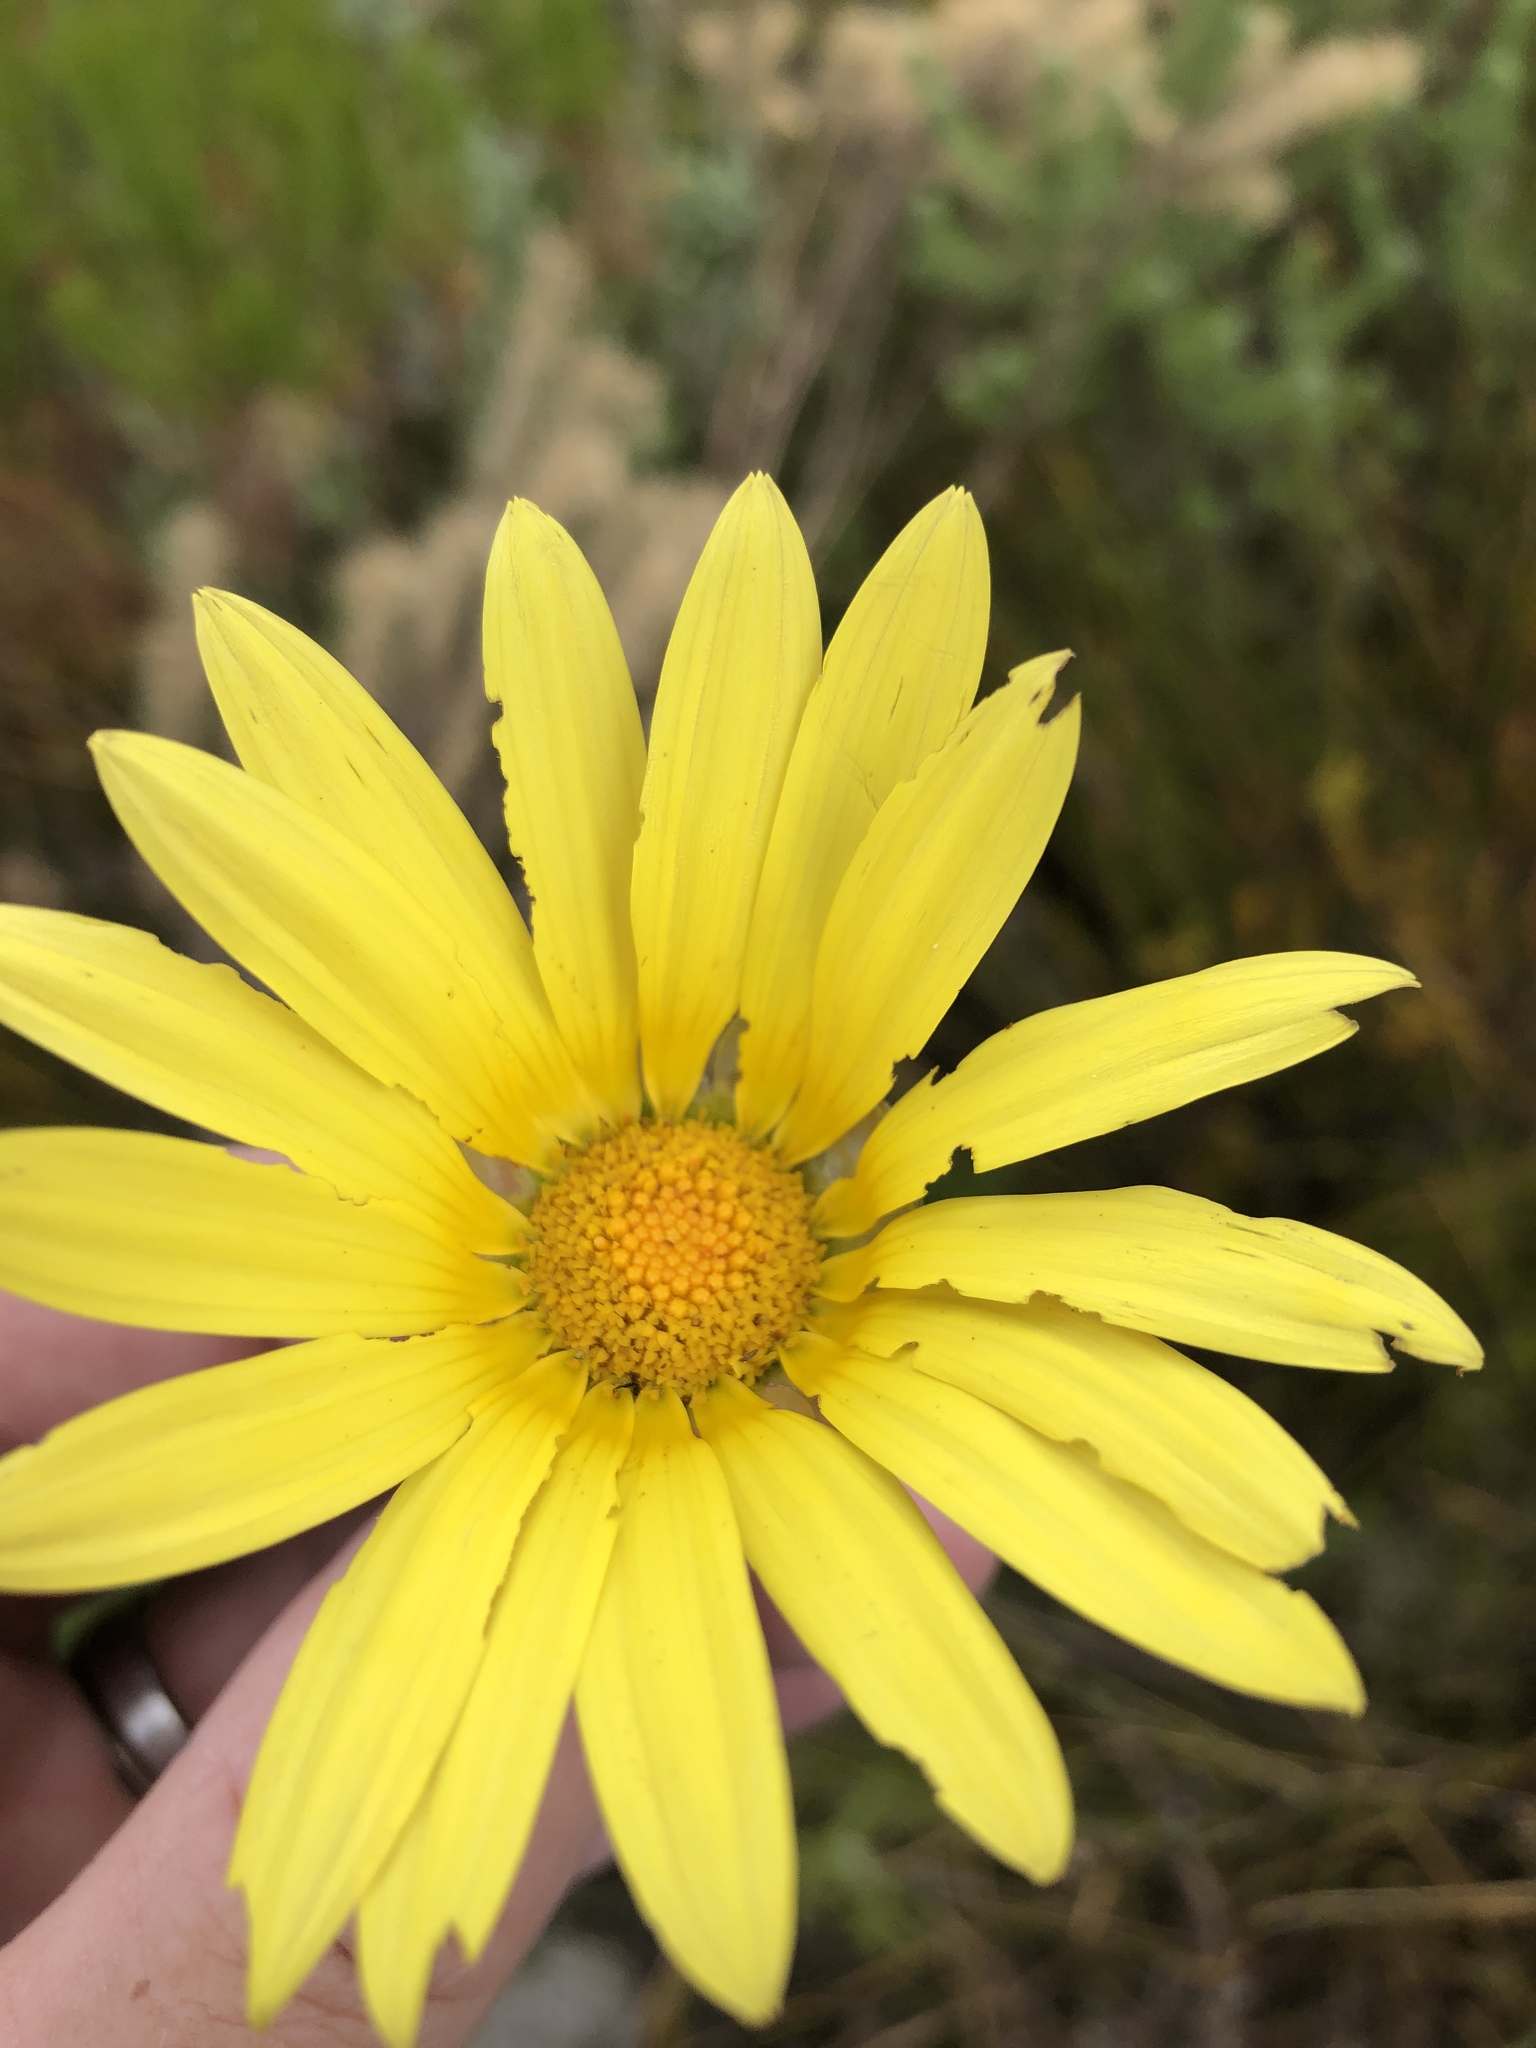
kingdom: Plantae
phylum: Tracheophyta
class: Magnoliopsida
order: Asterales
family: Asteraceae
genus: Arctotis
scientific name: Arctotis scabra
